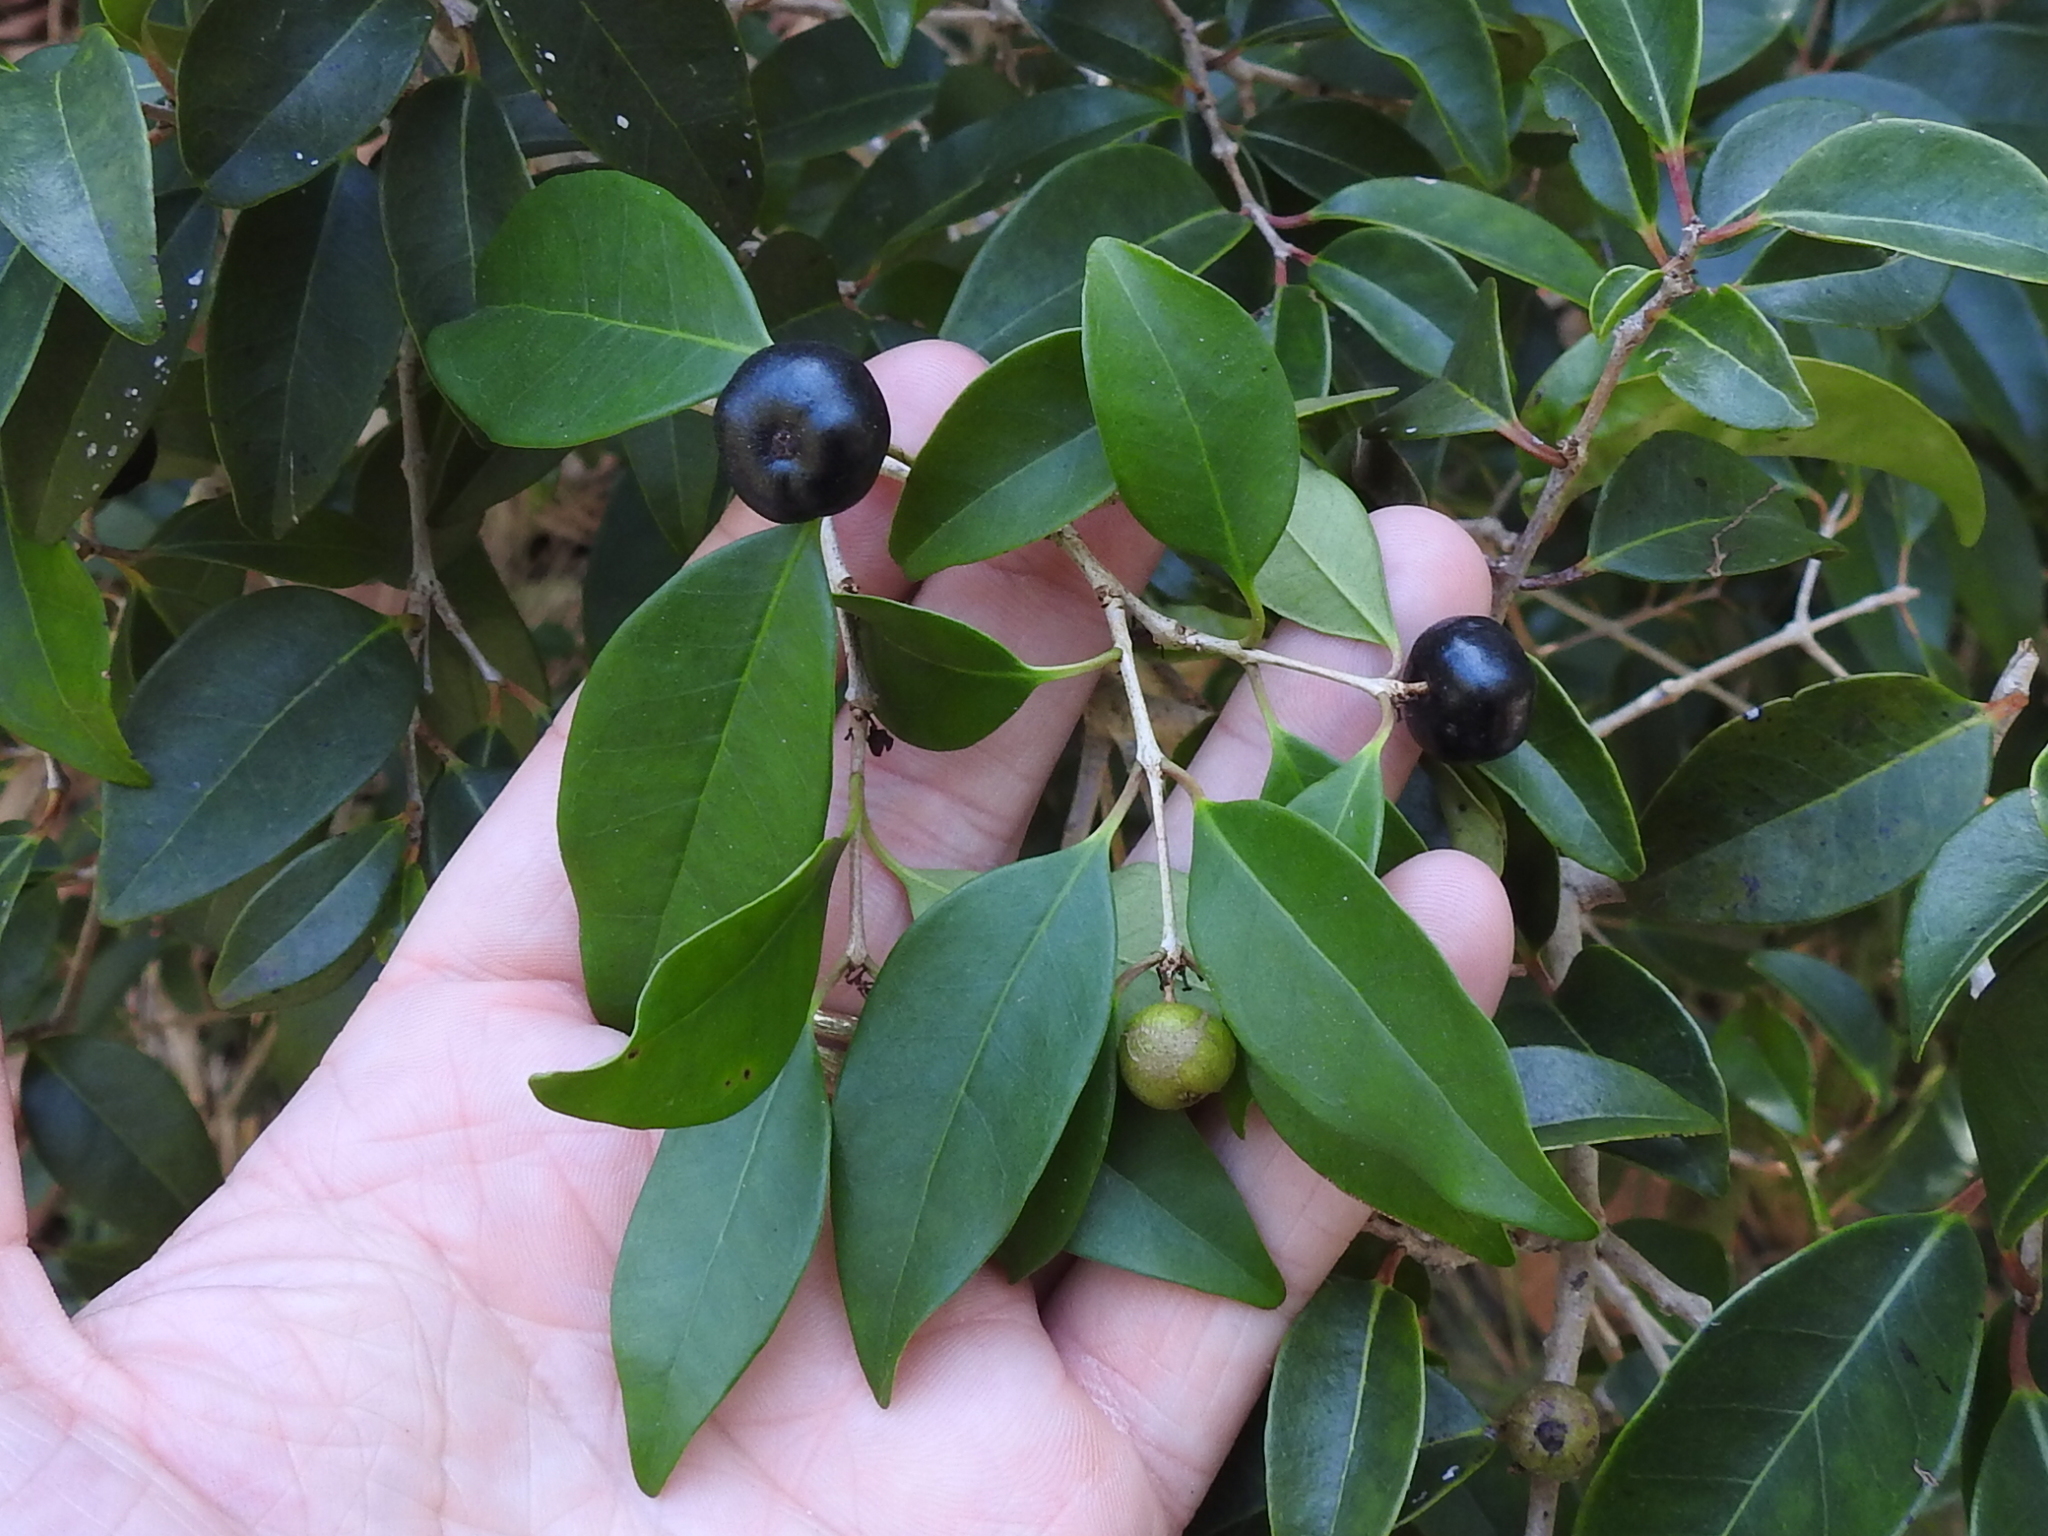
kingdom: Plantae
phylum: Tracheophyta
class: Magnoliopsida
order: Myrtales
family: Myrtaceae
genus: Eugenia
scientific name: Eugenia axillaris
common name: Choaky berry
